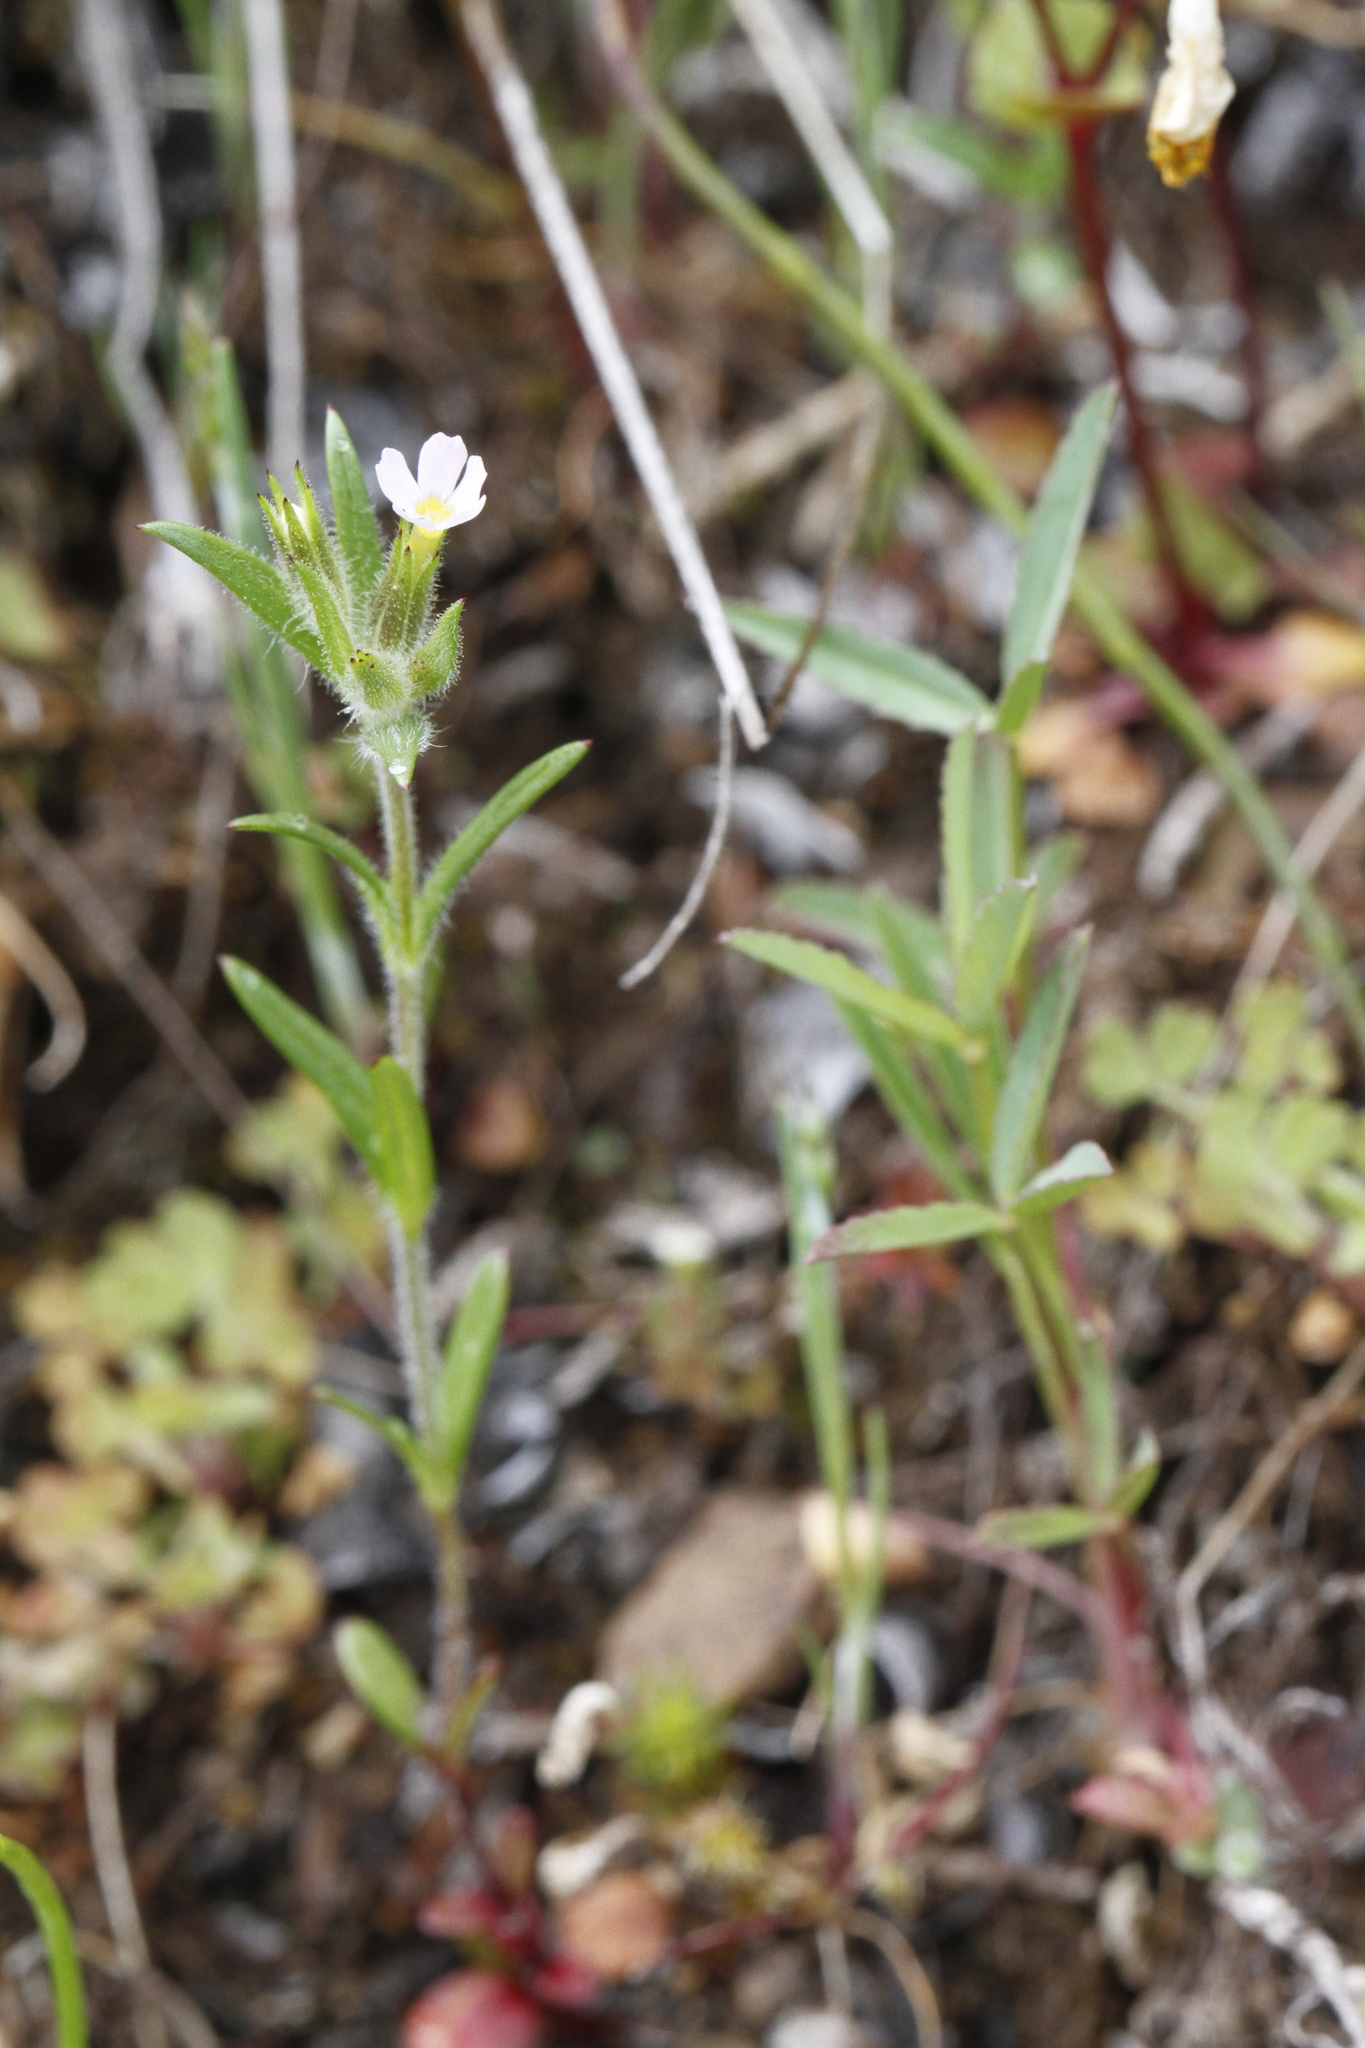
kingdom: Plantae
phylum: Tracheophyta
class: Magnoliopsida
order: Ericales
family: Polemoniaceae
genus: Phlox
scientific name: Phlox gracilis
